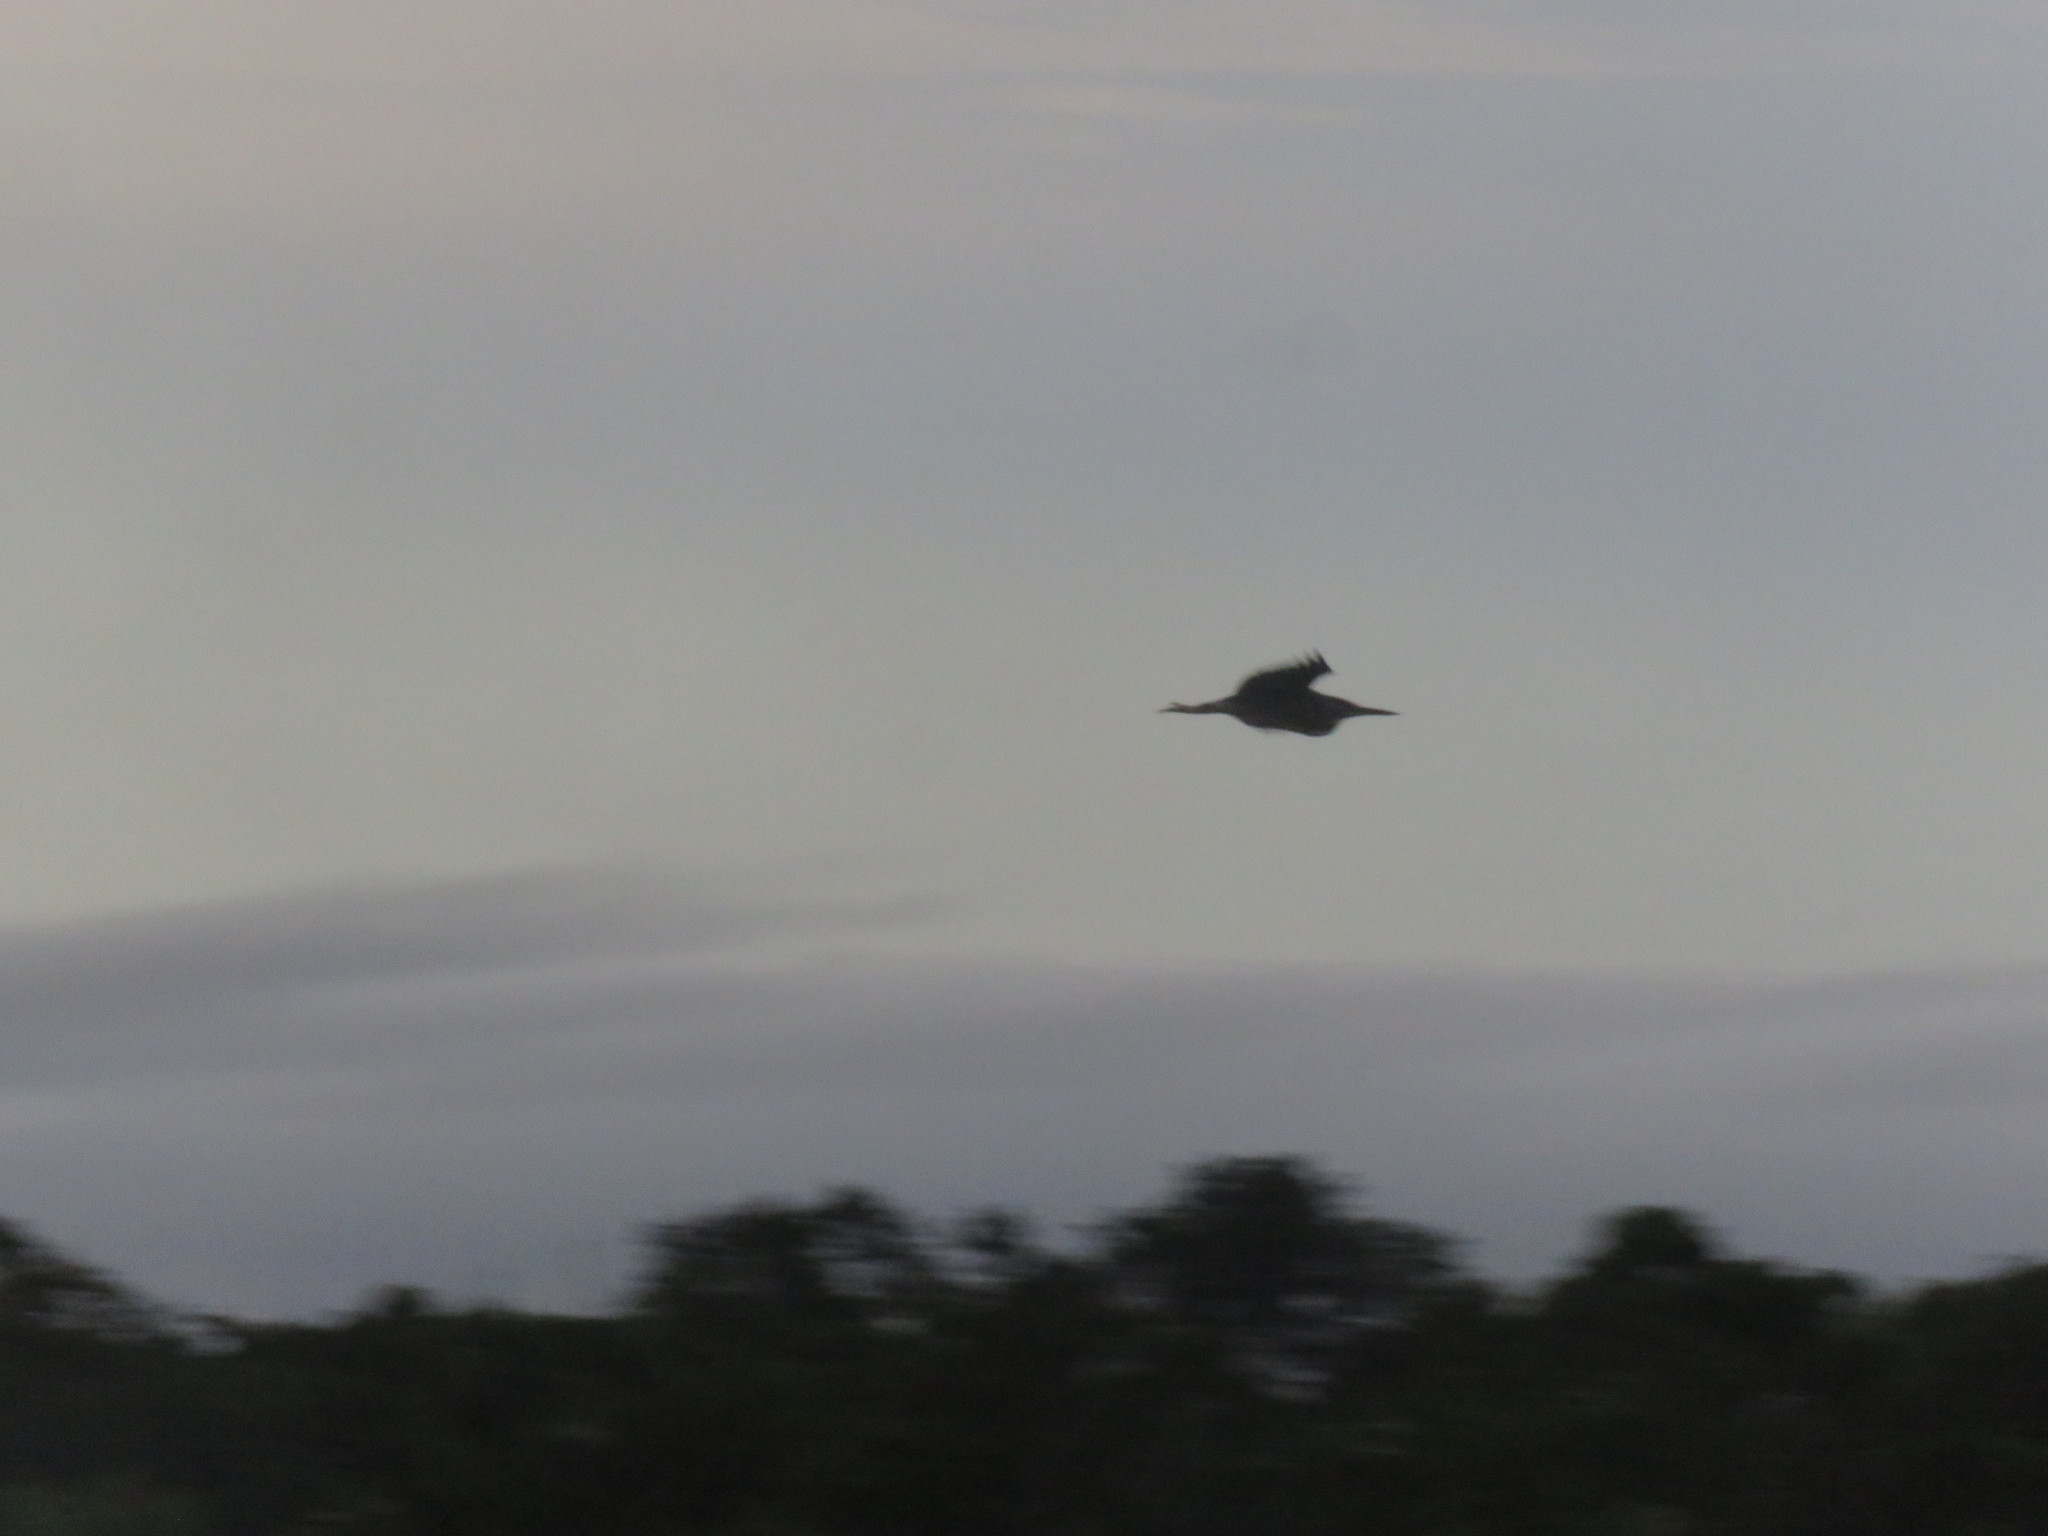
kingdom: Animalia
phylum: Chordata
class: Aves
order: Pelecaniformes
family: Ardeidae
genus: Butorides
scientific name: Butorides striata
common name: Striated heron
